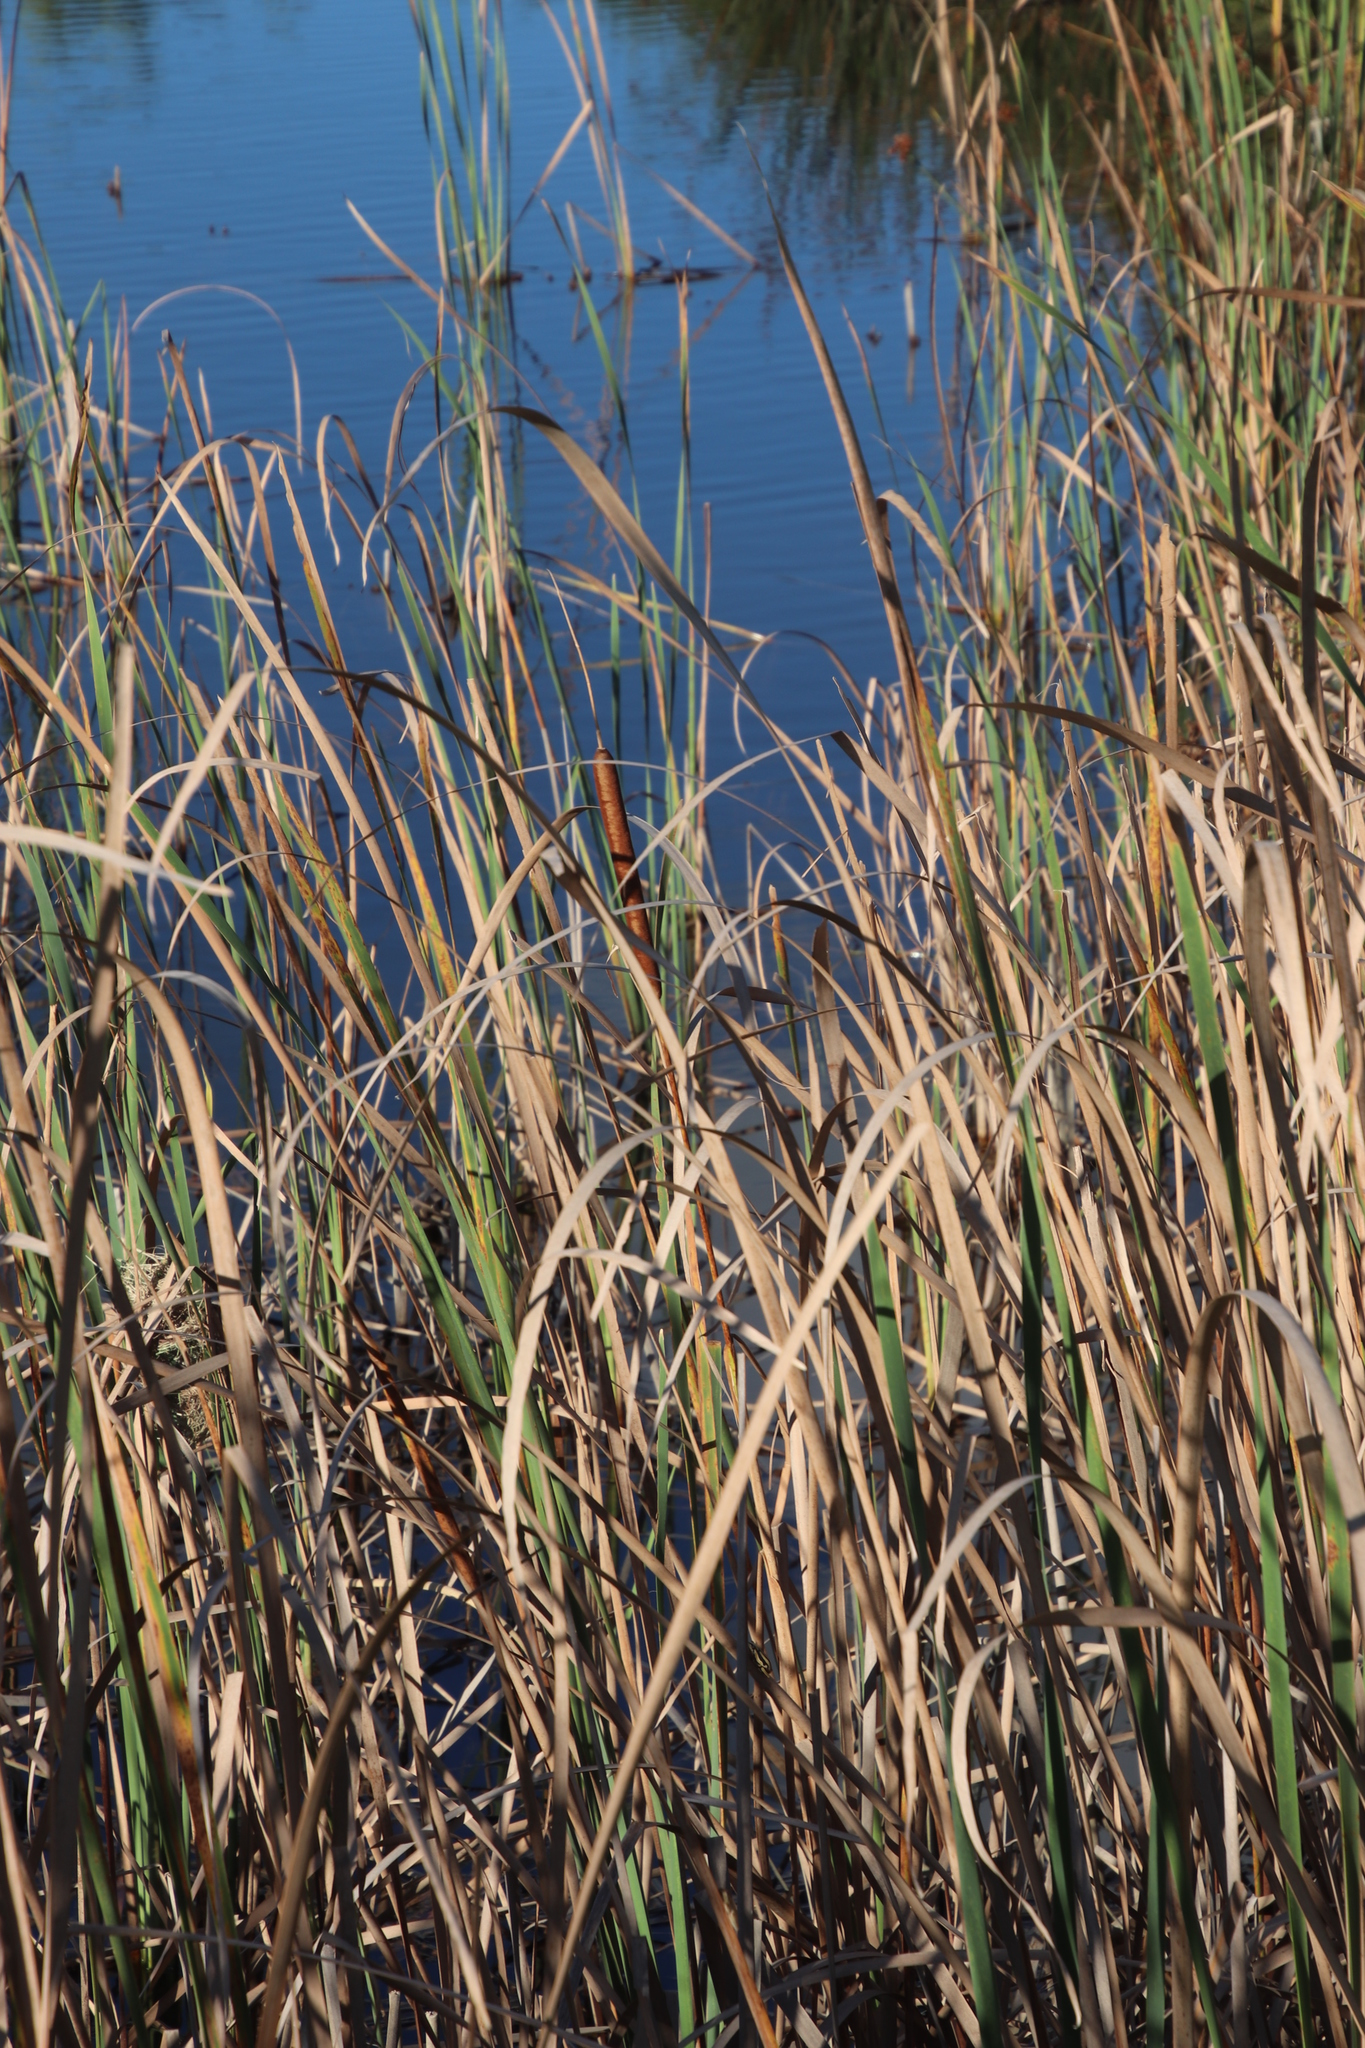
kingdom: Plantae
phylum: Tracheophyta
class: Liliopsida
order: Poales
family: Typhaceae
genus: Typha
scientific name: Typha capensis
